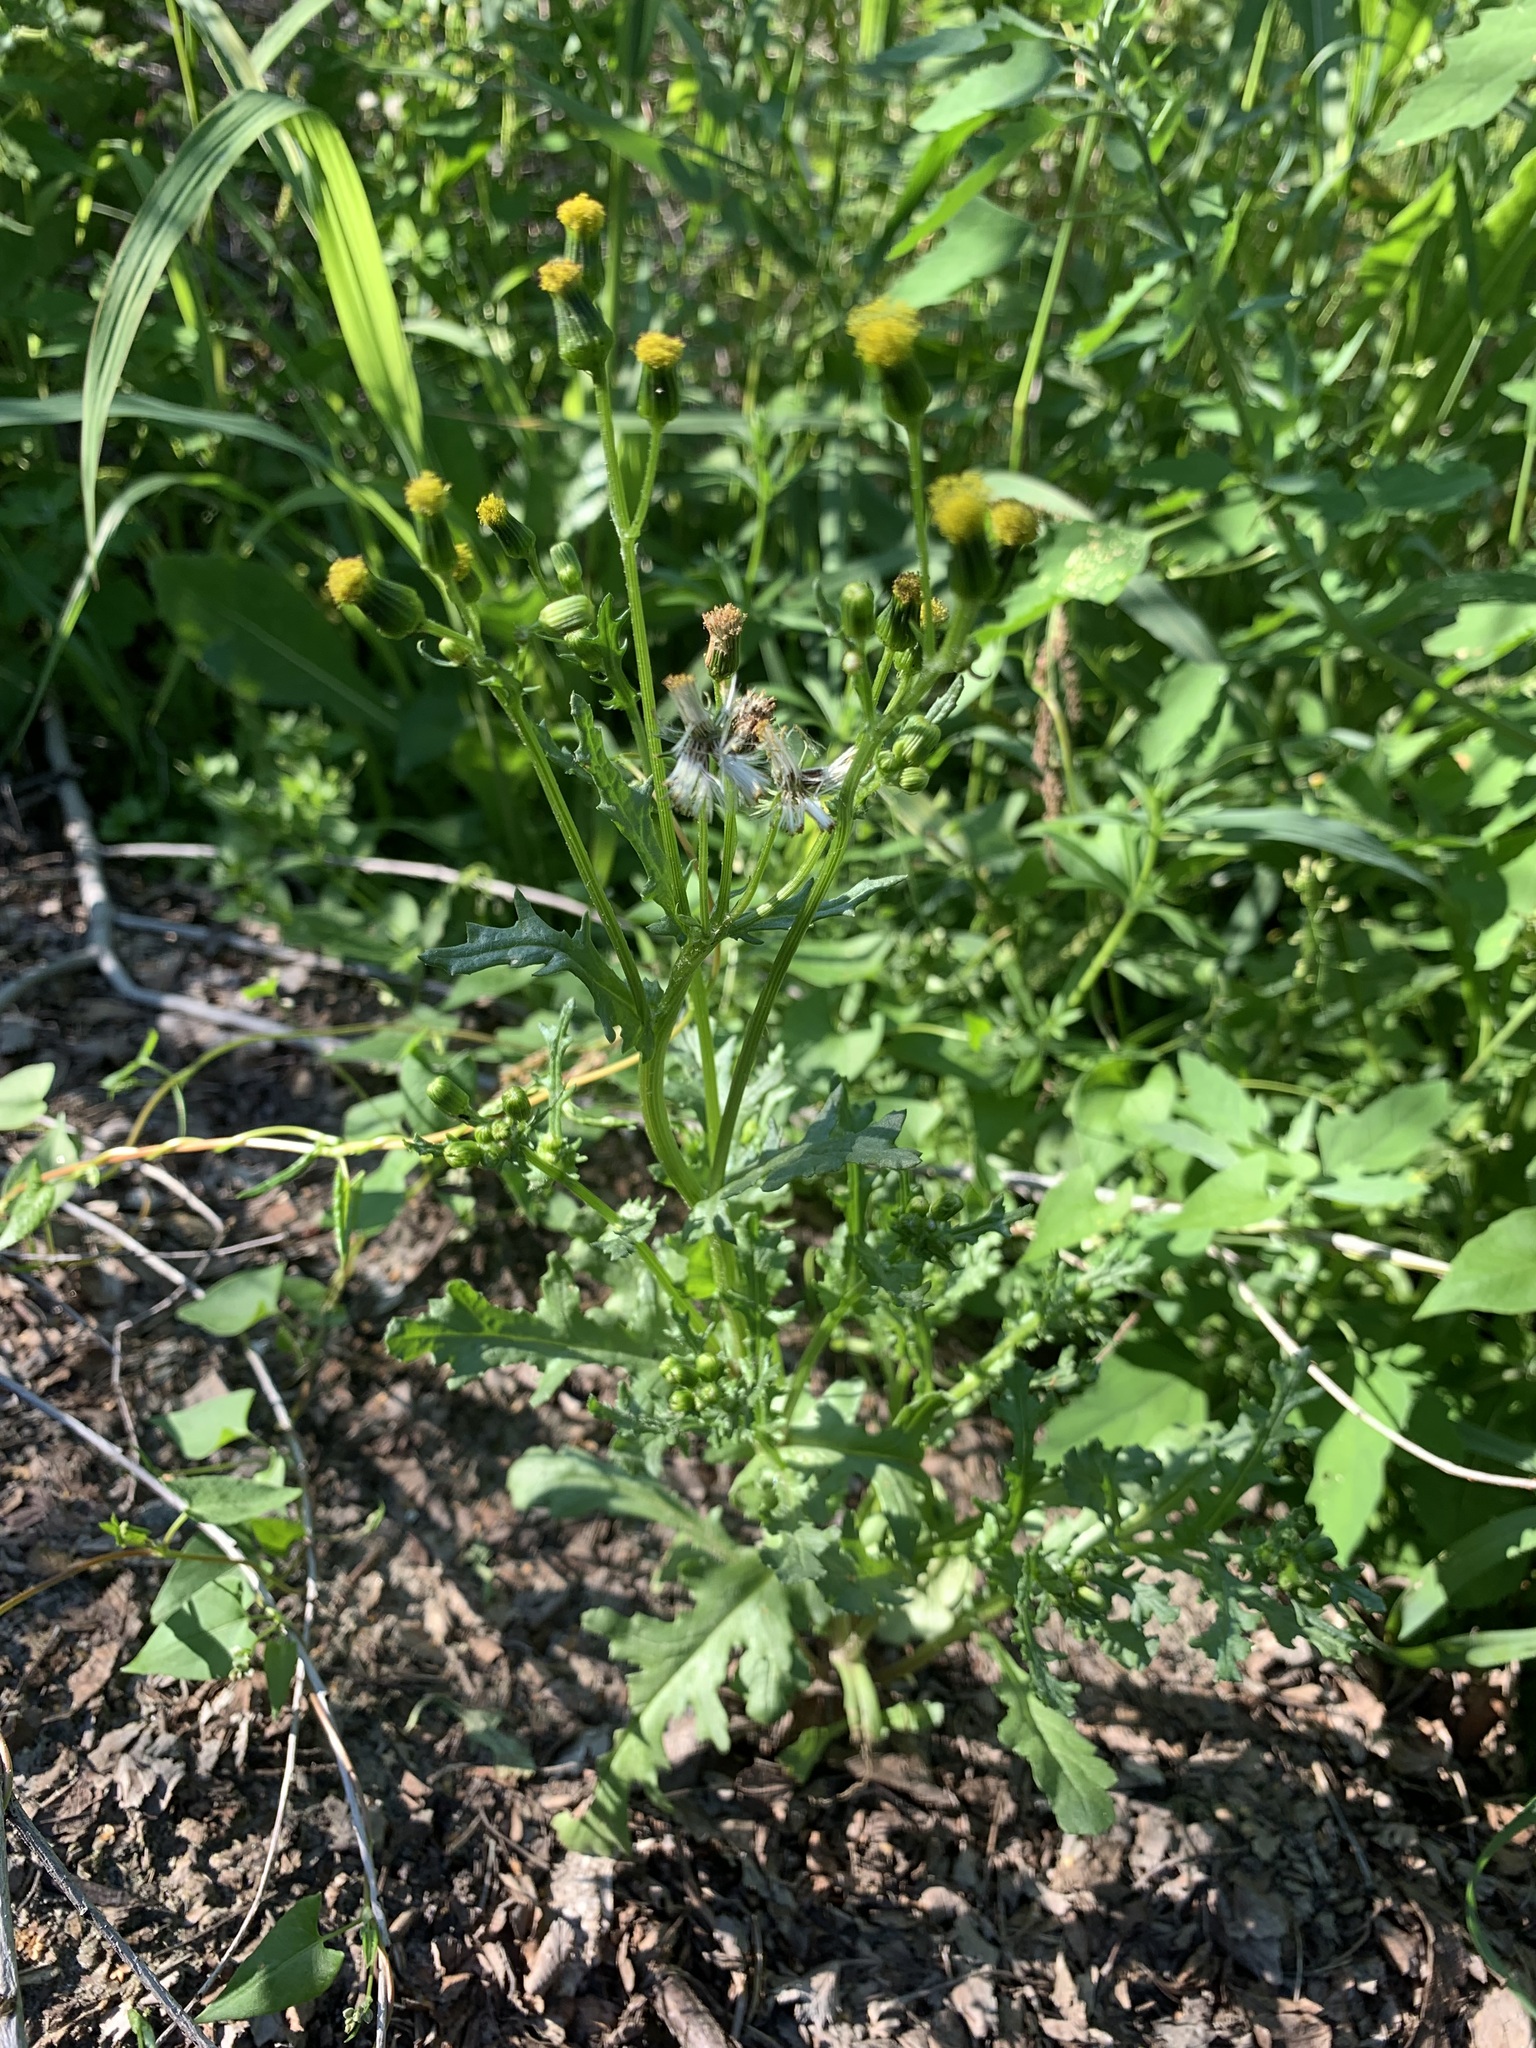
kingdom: Plantae
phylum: Tracheophyta
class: Magnoliopsida
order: Asterales
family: Asteraceae
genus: Senecio
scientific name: Senecio vulgaris
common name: Old-man-in-the-spring
